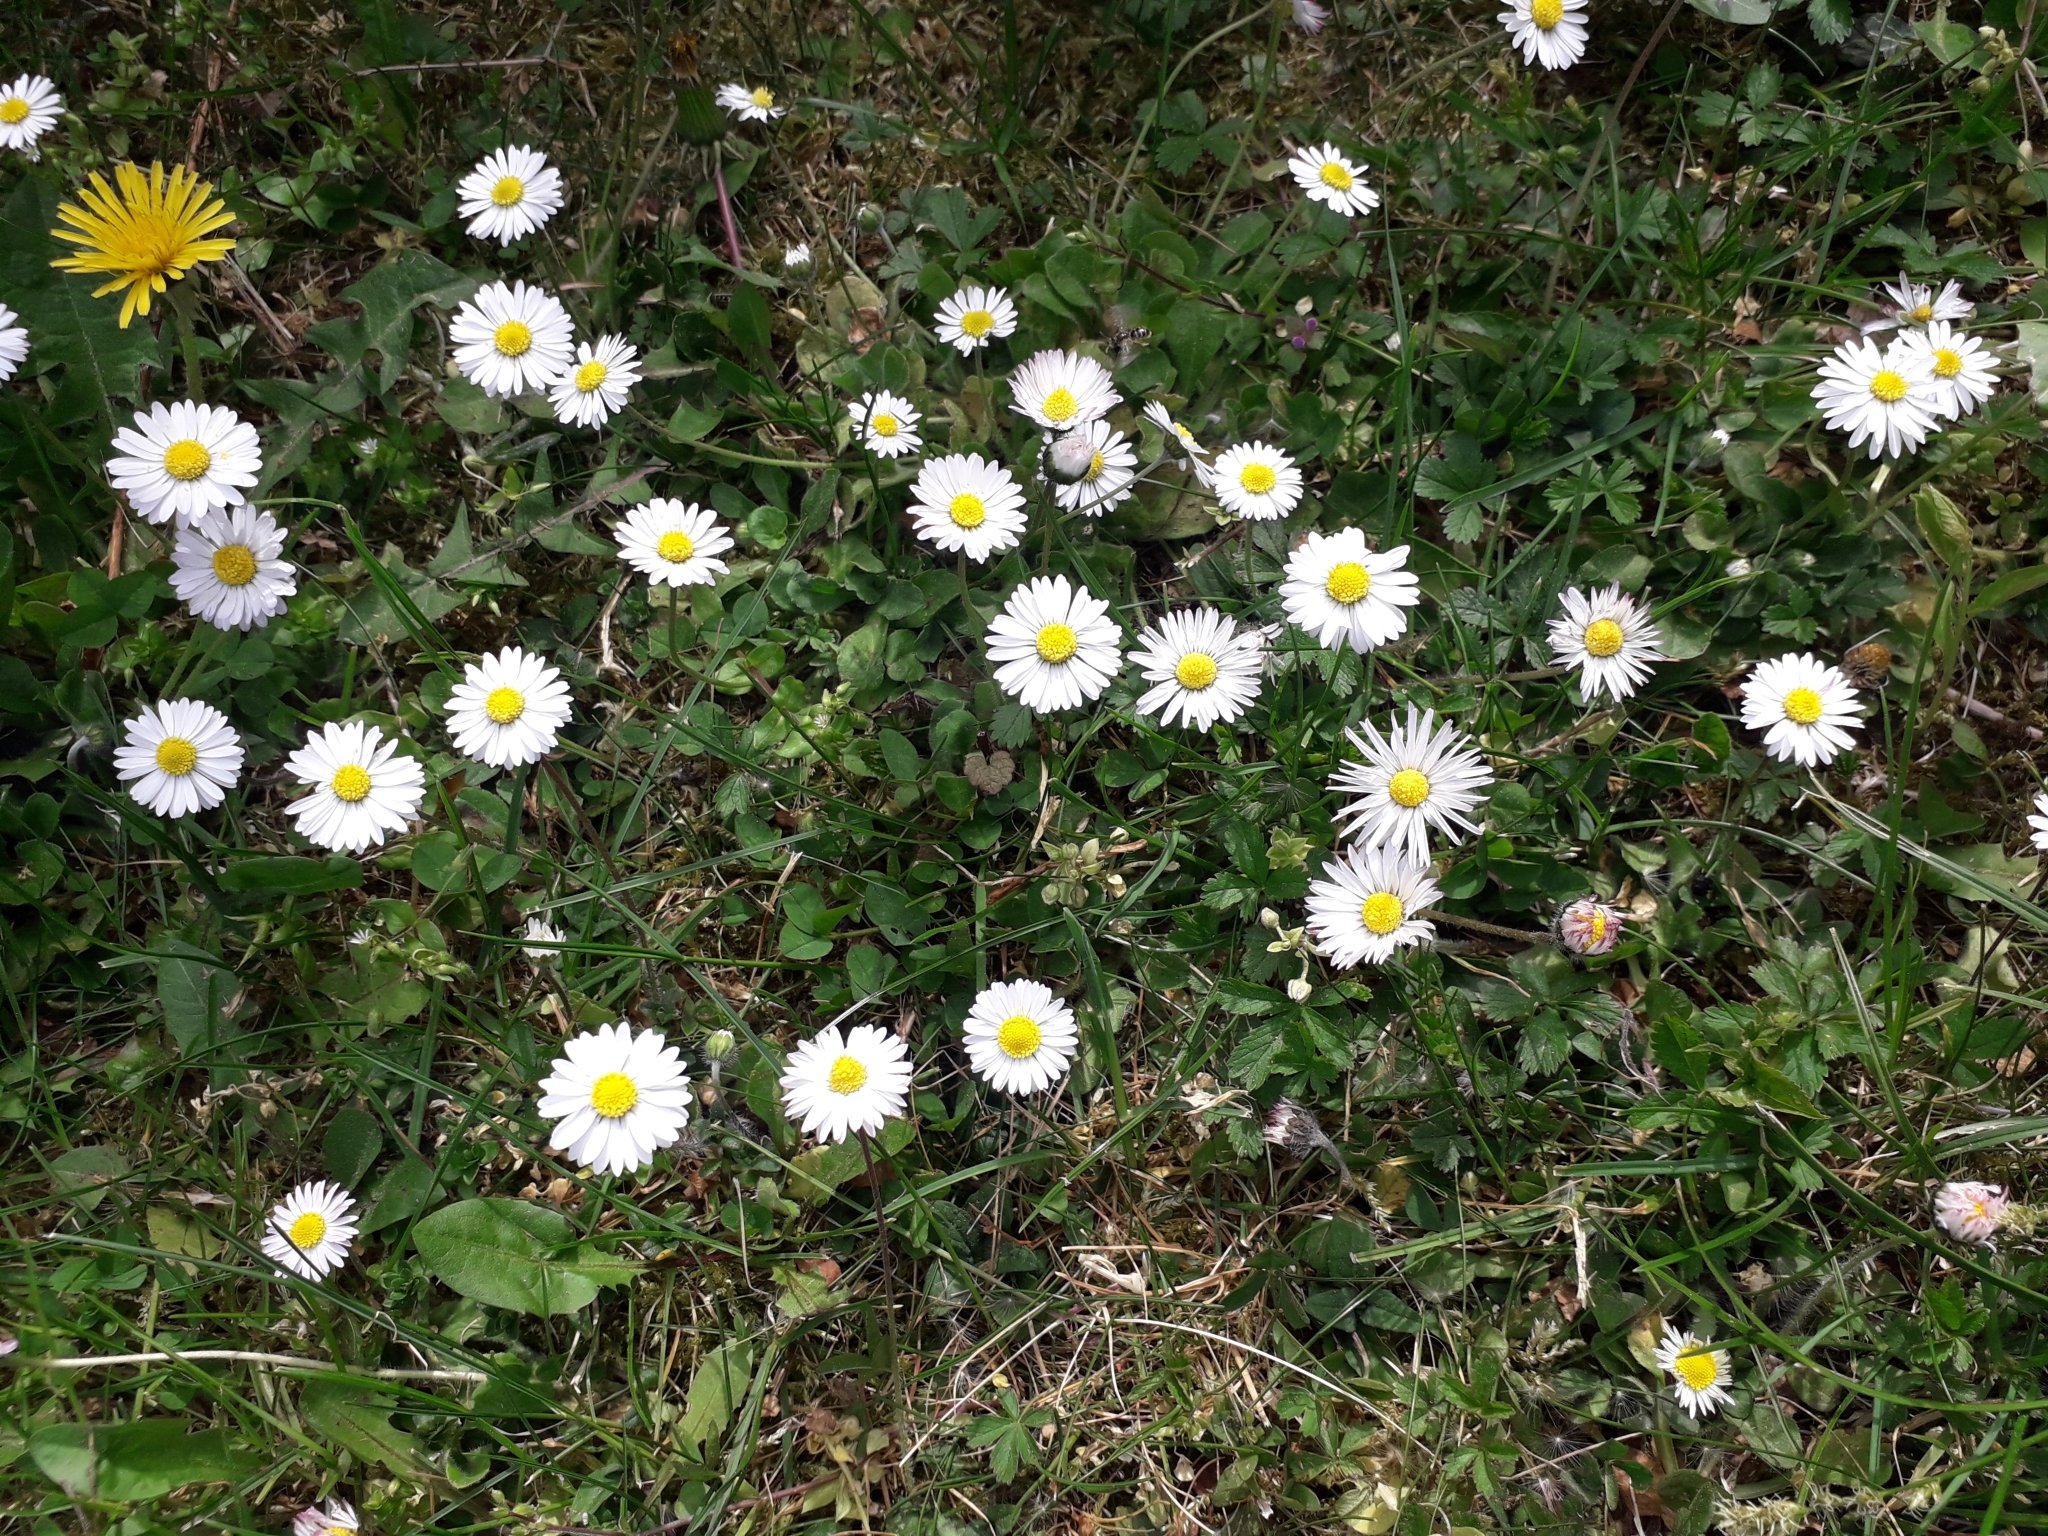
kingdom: Plantae
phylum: Tracheophyta
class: Magnoliopsida
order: Asterales
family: Asteraceae
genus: Bellis
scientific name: Bellis perennis
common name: Lawndaisy
